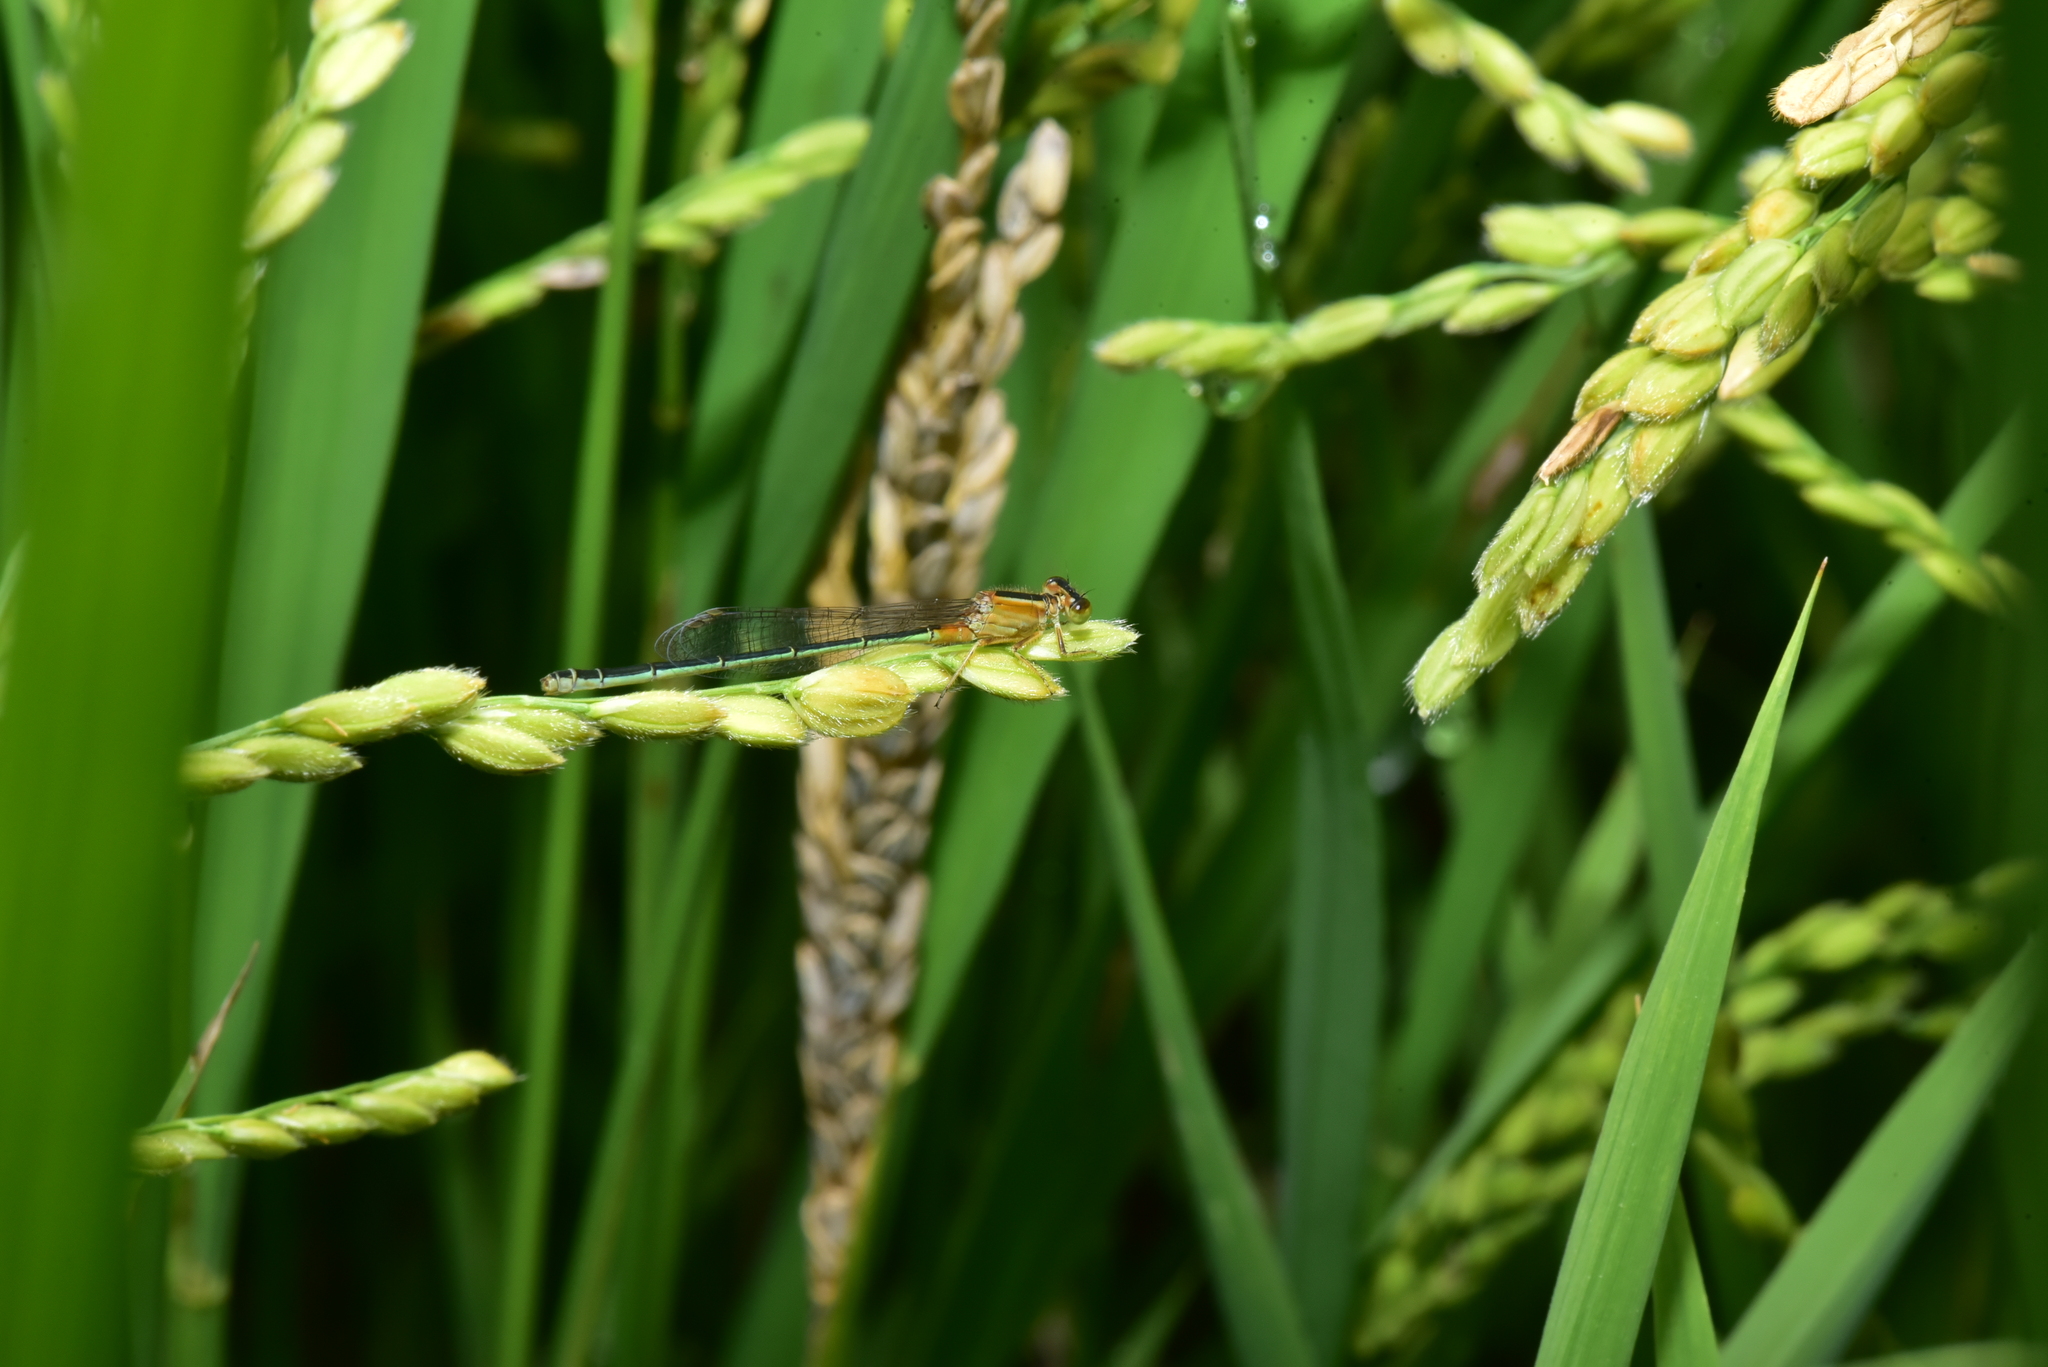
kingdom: Animalia
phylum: Arthropoda
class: Insecta
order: Odonata
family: Coenagrionidae
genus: Ischnura
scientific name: Ischnura senegalensis
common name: Tropical bluetail
